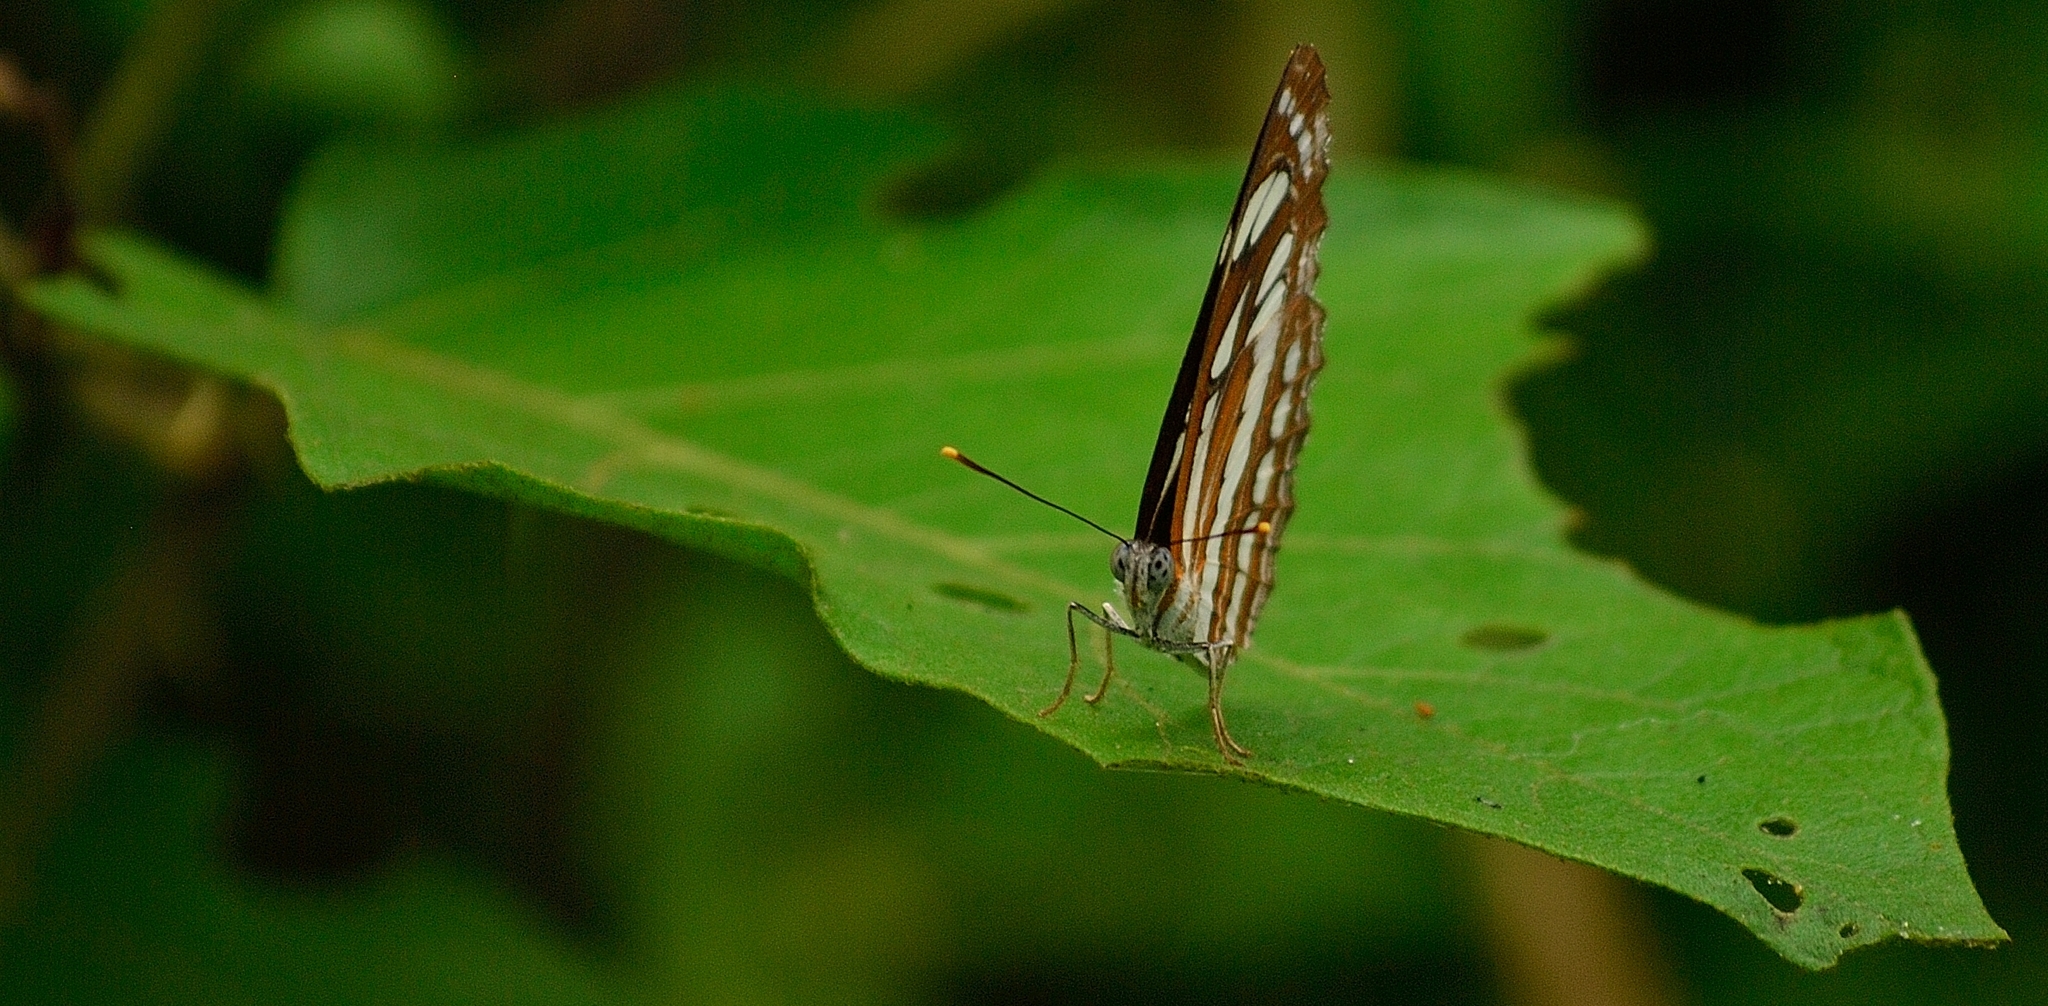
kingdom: Animalia
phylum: Arthropoda
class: Insecta
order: Lepidoptera
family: Nymphalidae
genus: Neptis
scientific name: Neptis hylas
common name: Common sailer
